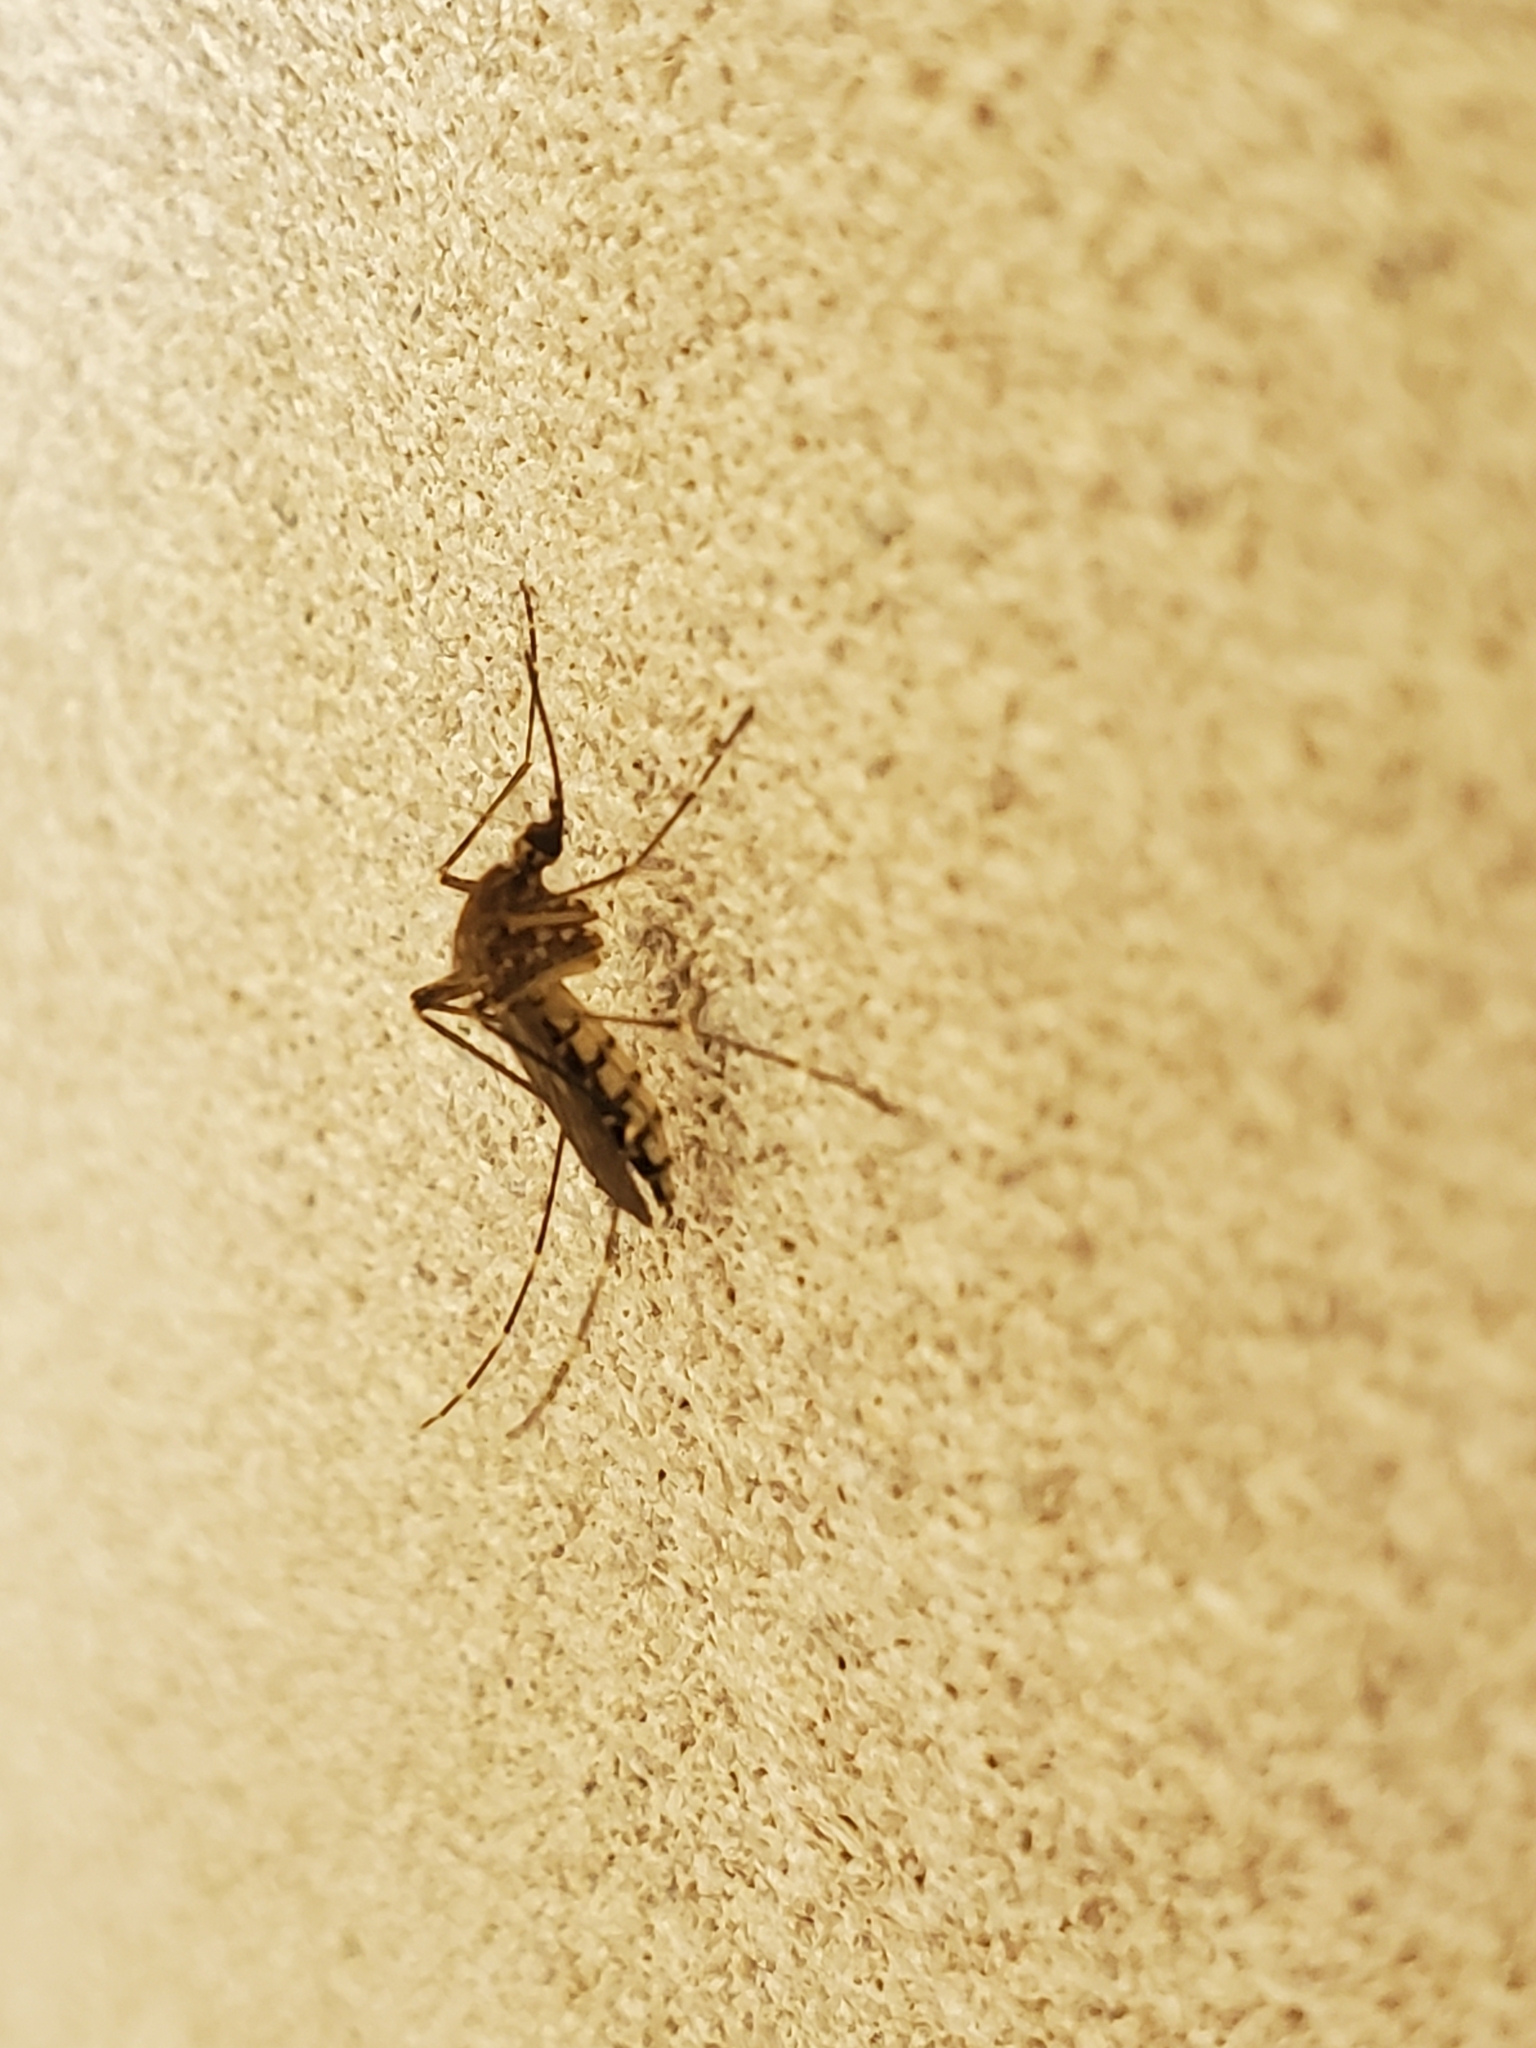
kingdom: Animalia
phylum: Arthropoda
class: Insecta
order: Diptera
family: Culicidae
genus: Aedes
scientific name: Aedes vexans
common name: Inland floodwater mosquito
